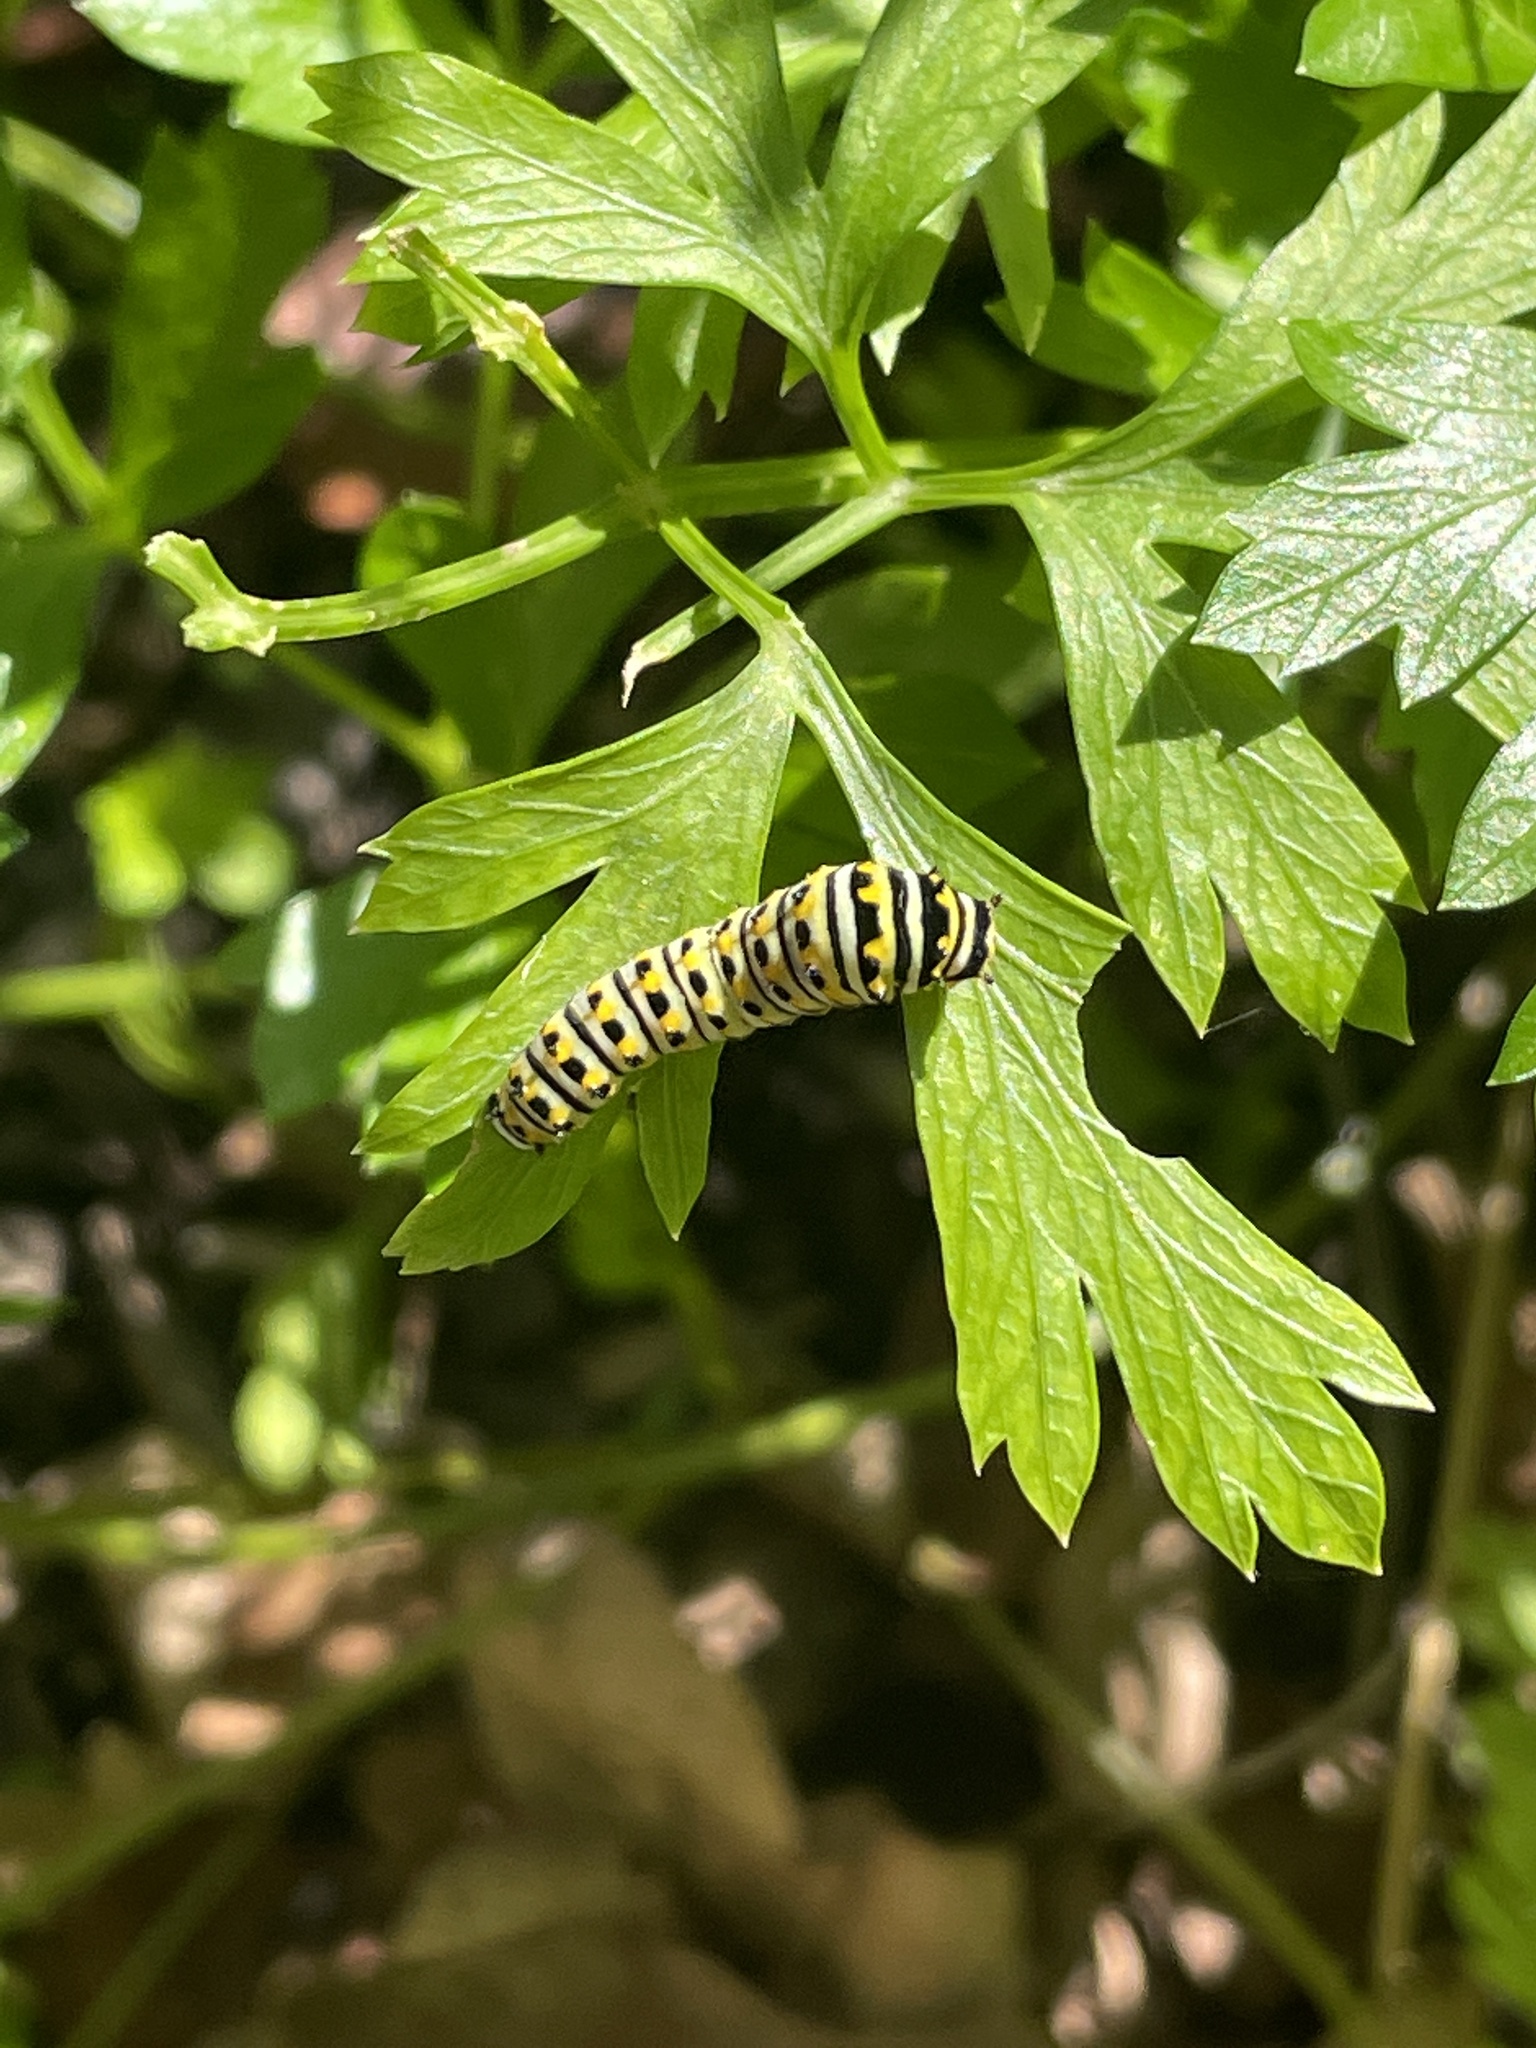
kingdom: Animalia
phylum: Arthropoda
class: Insecta
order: Lepidoptera
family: Papilionidae
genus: Papilio
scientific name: Papilio polyxenes
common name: Black swallowtail
